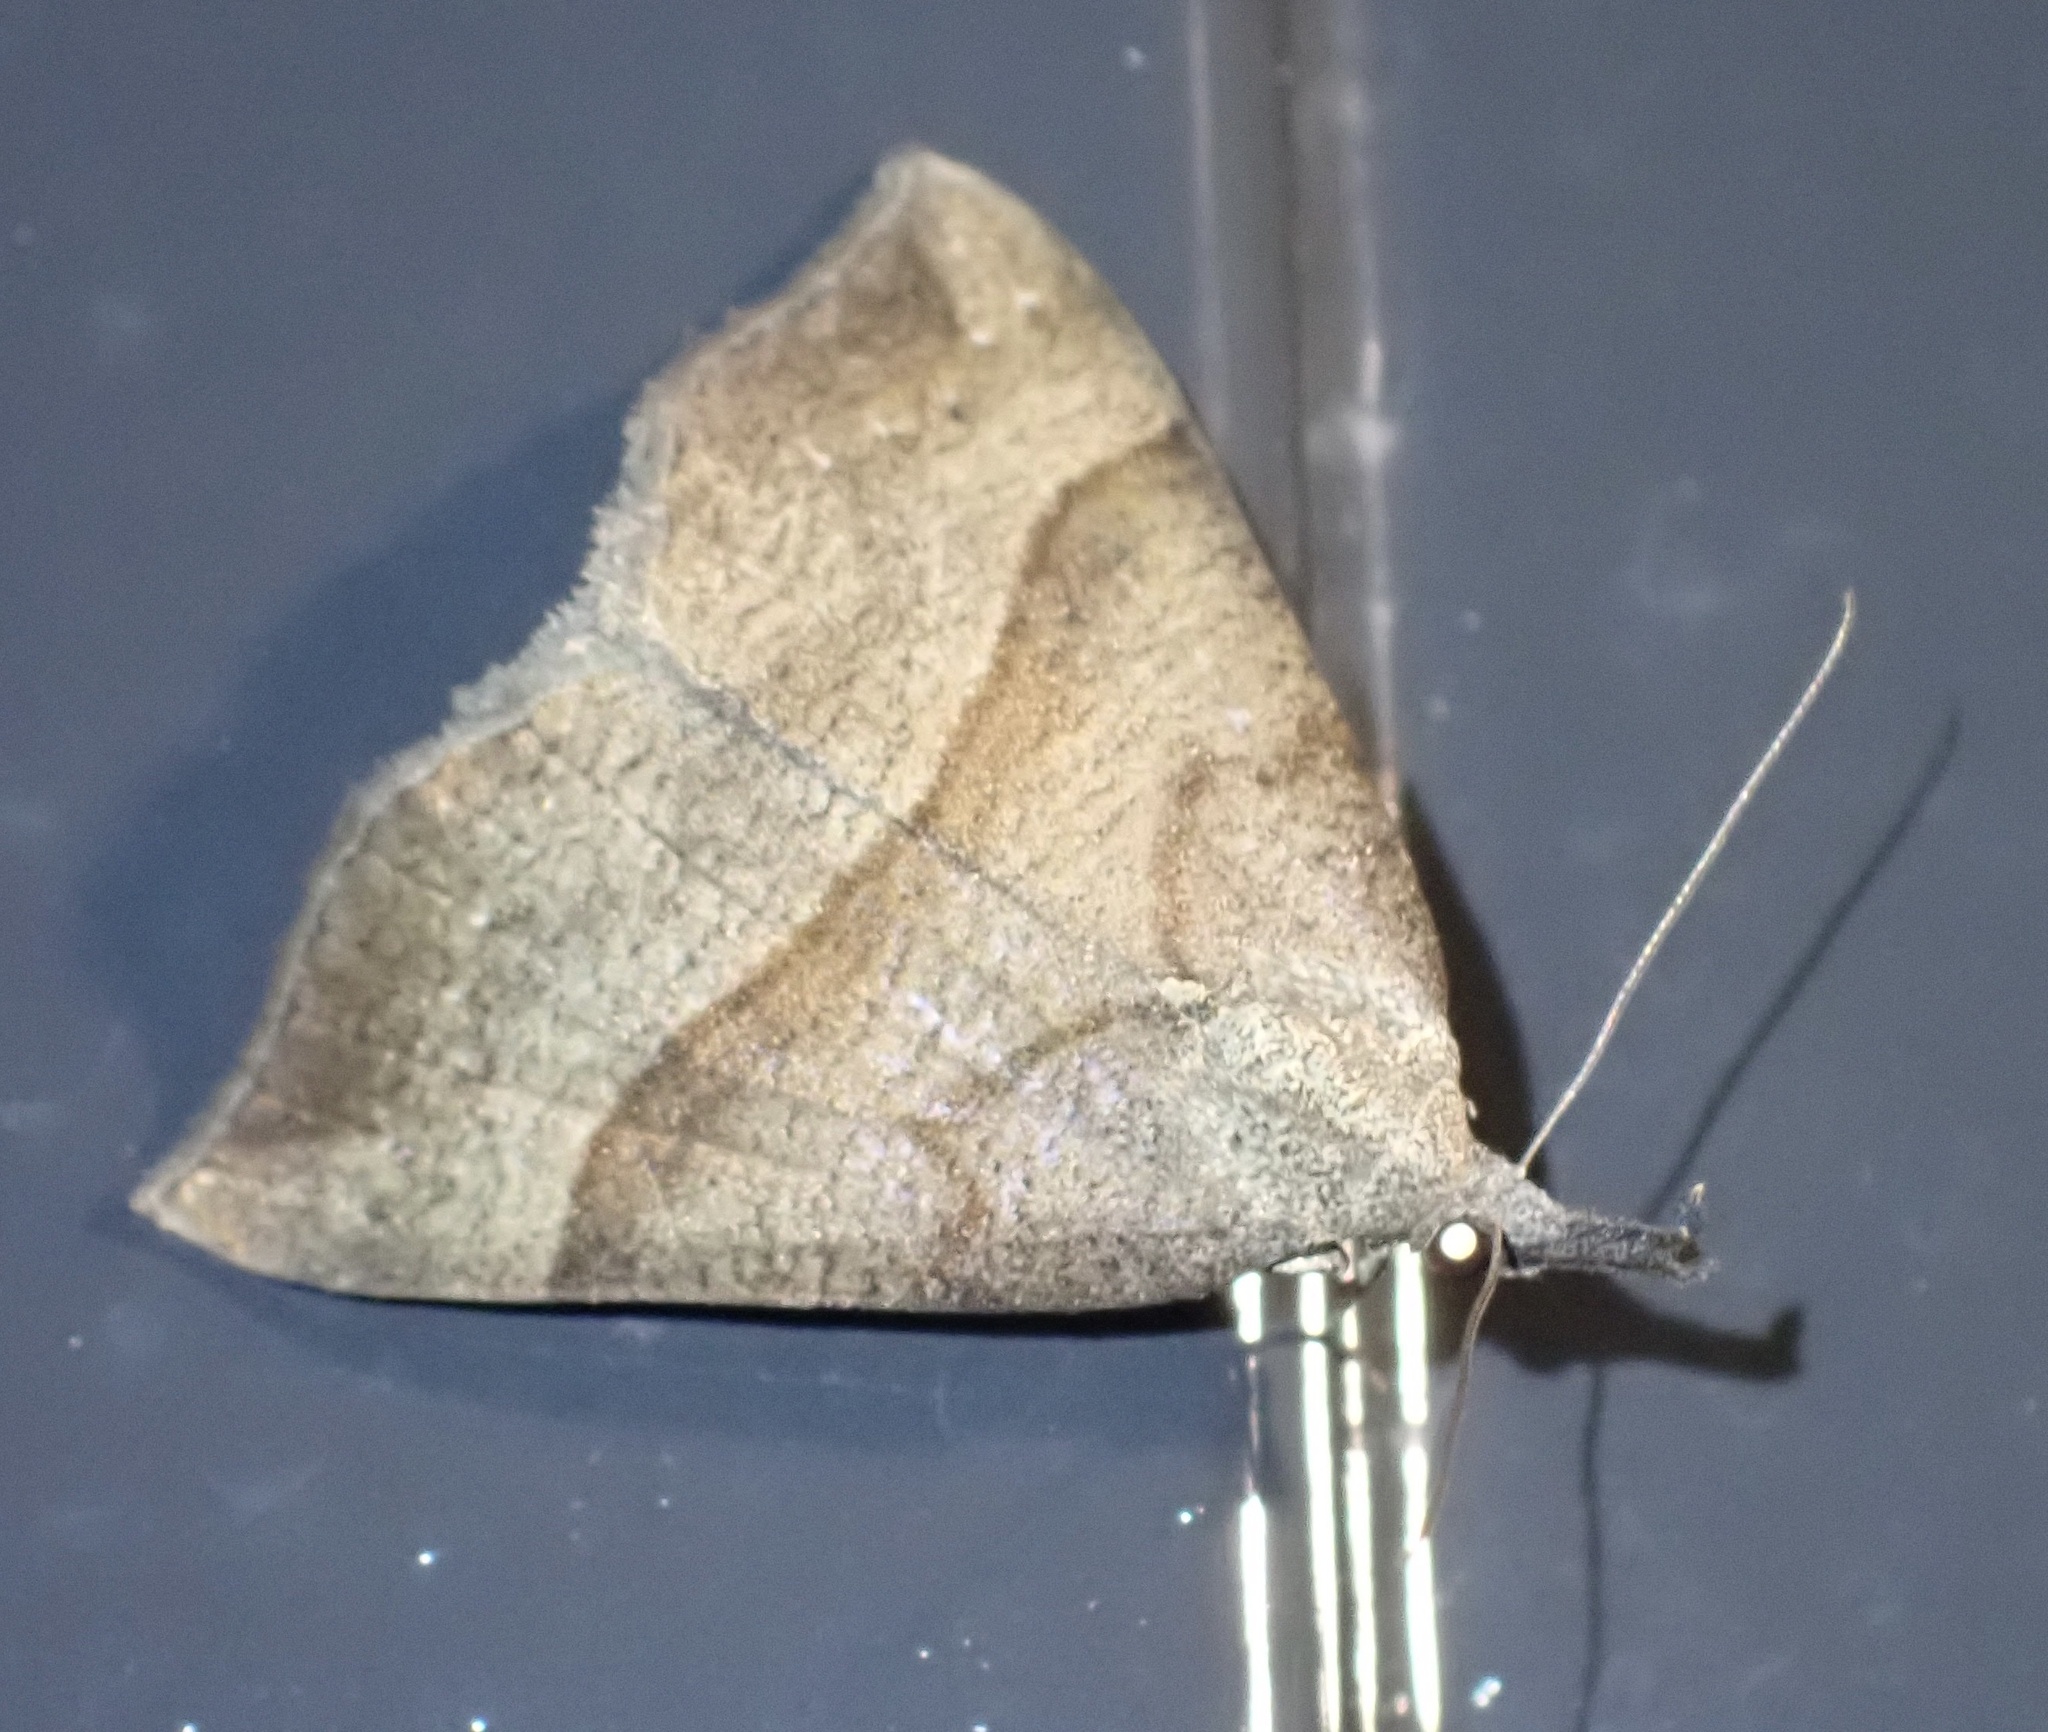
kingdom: Animalia
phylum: Arthropoda
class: Insecta
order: Lepidoptera
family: Erebidae
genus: Hypena
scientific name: Hypena proboscidalis
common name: Snout
